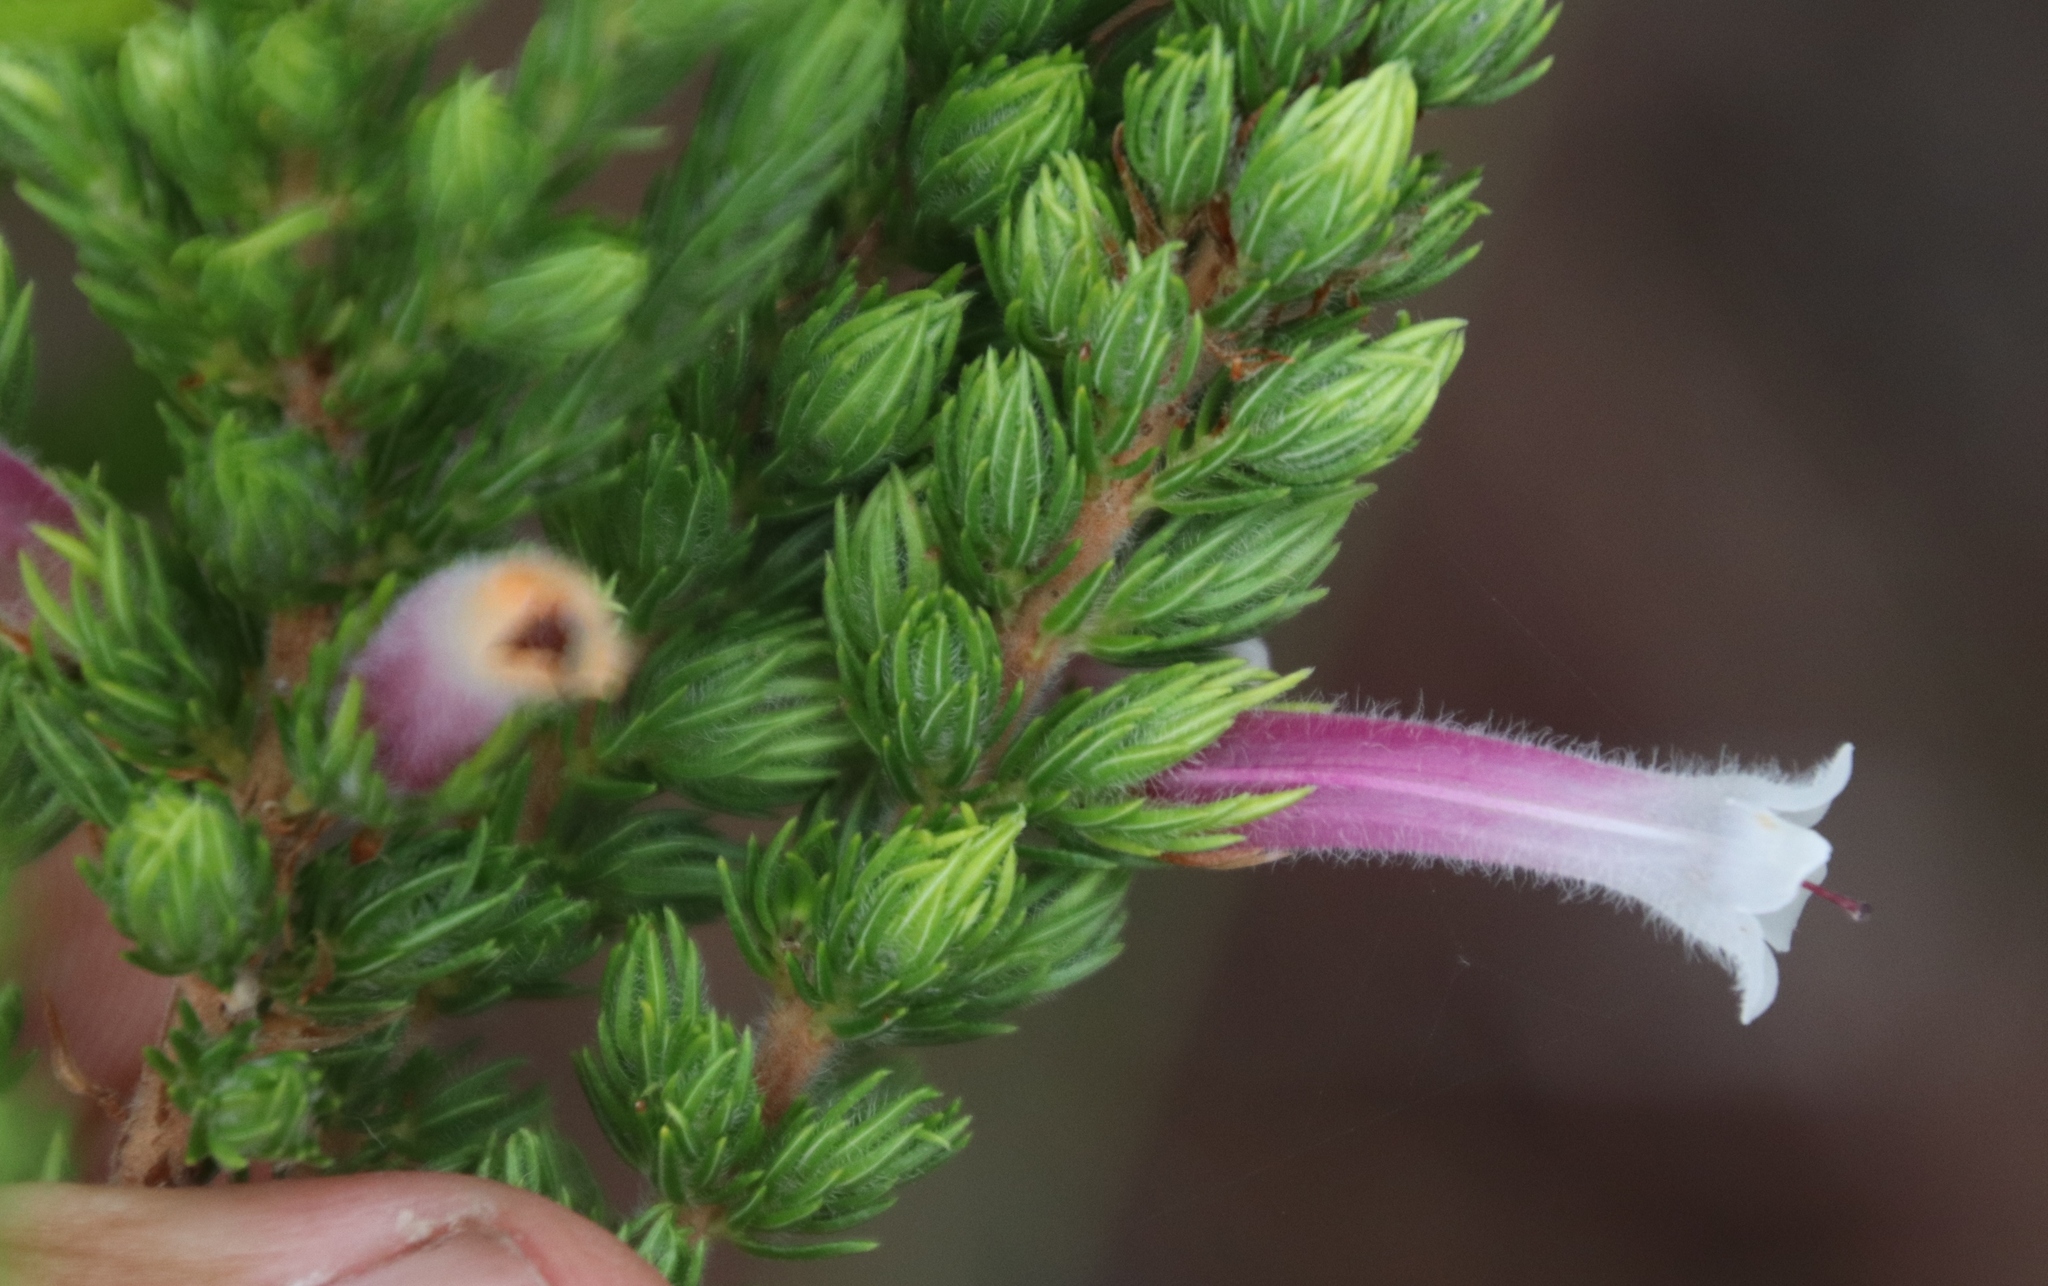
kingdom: Plantae
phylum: Tracheophyta
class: Magnoliopsida
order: Ericales
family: Ericaceae
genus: Erica
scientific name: Erica macowanii
